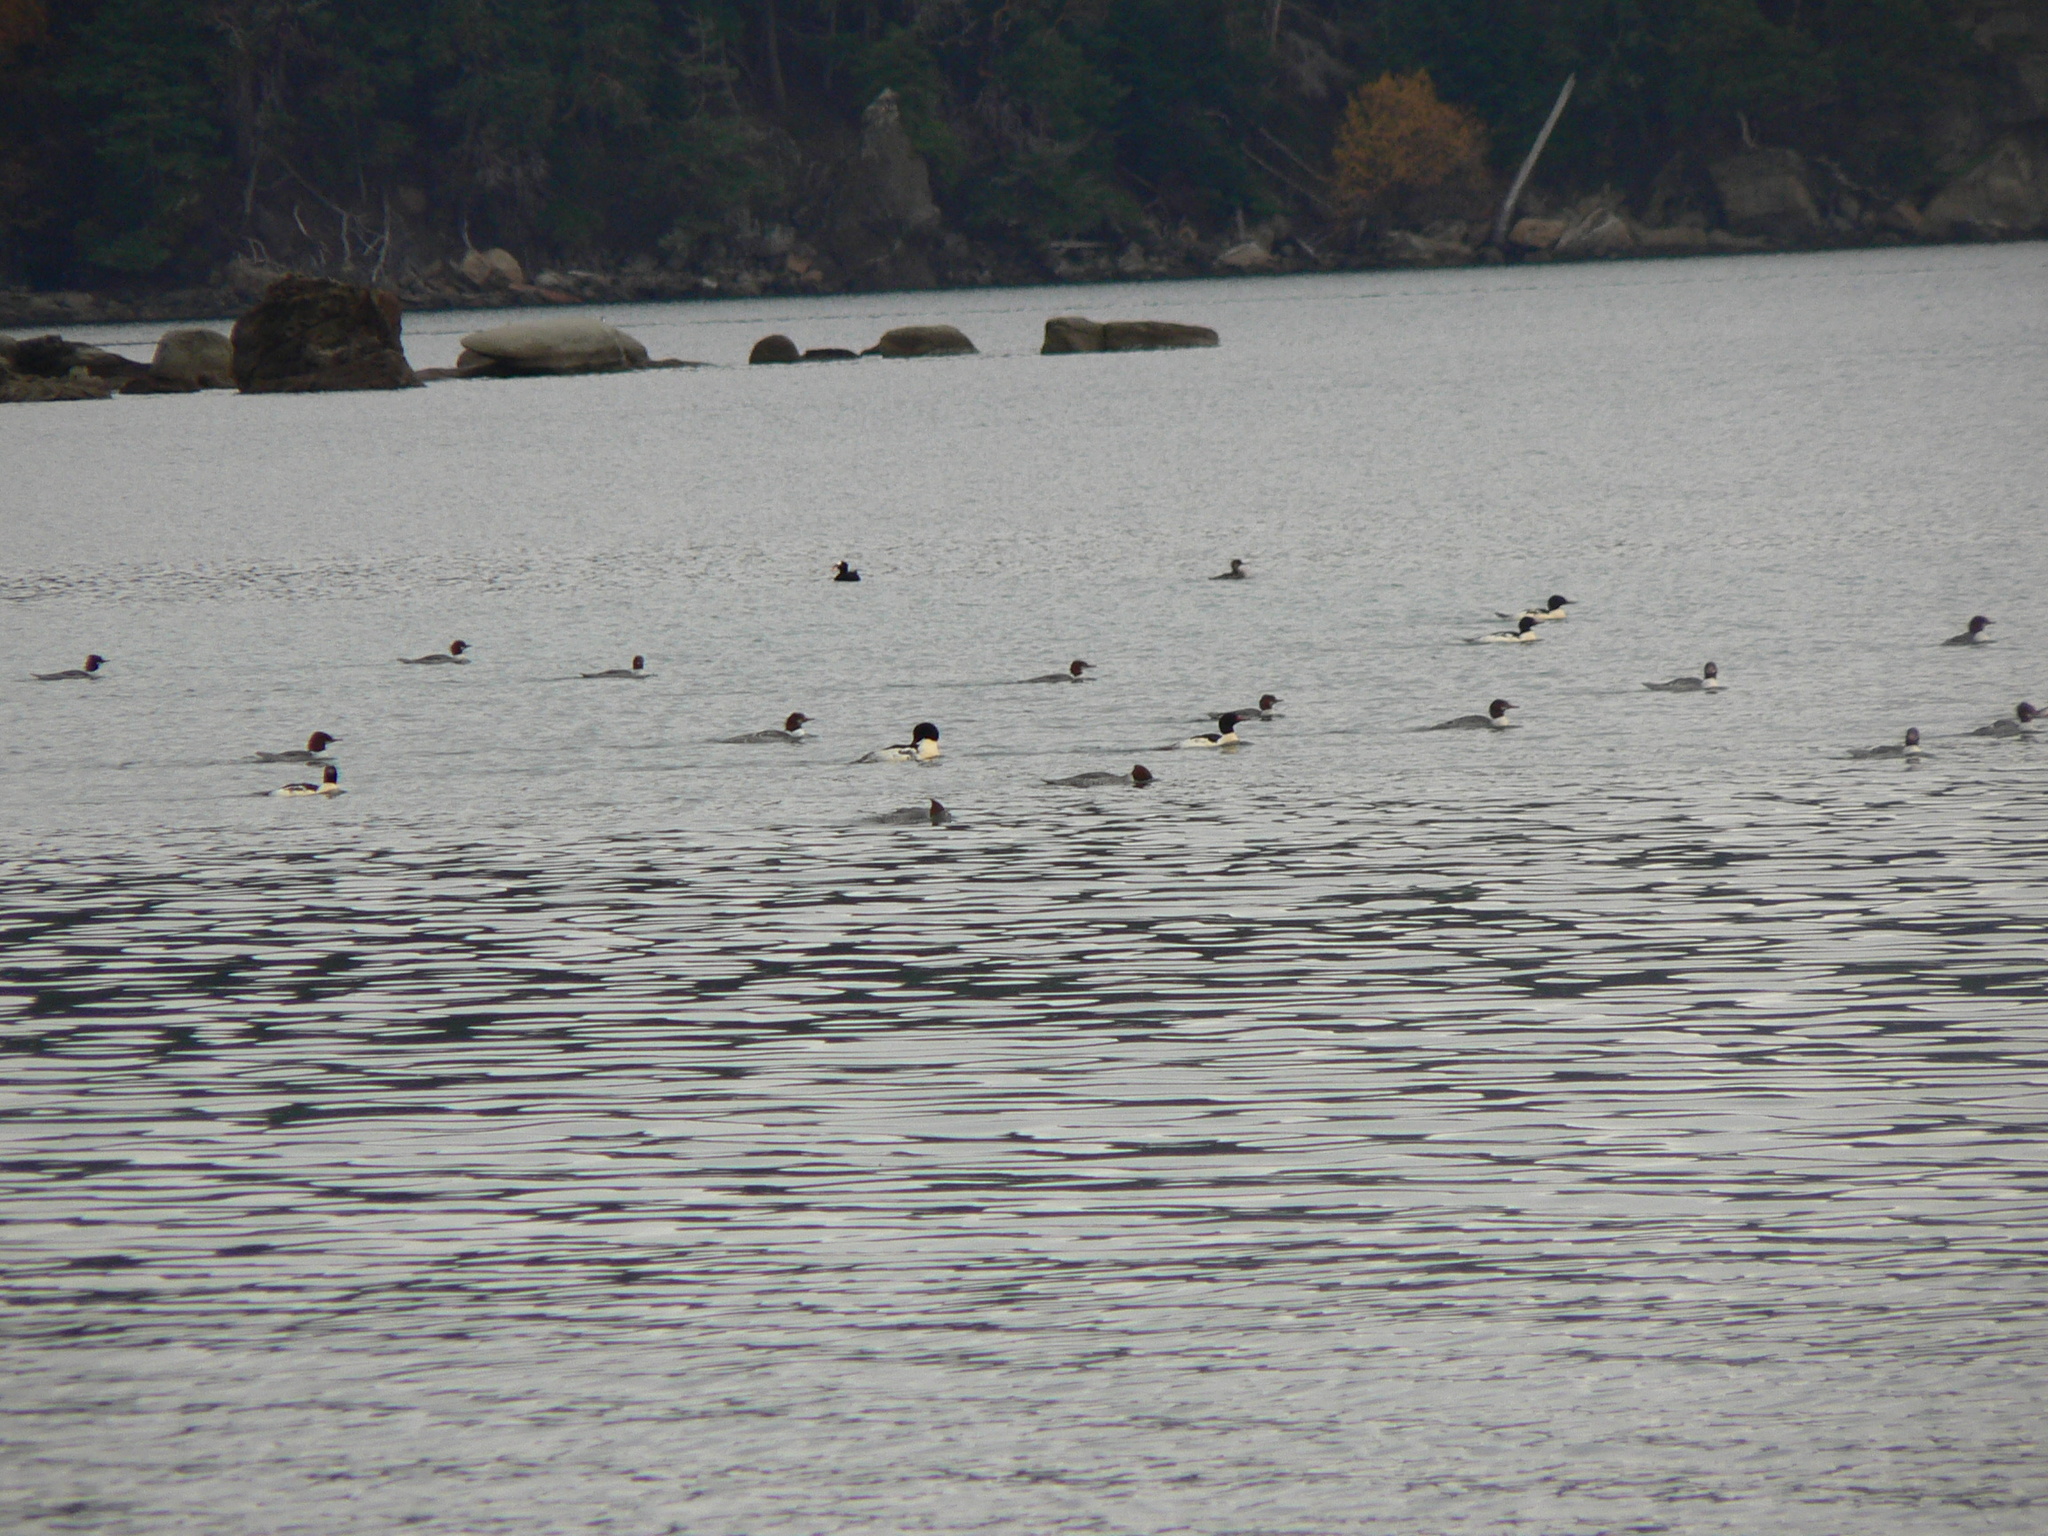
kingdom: Animalia
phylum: Chordata
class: Aves
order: Anseriformes
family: Anatidae
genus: Mergus
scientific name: Mergus merganser
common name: Common merganser
